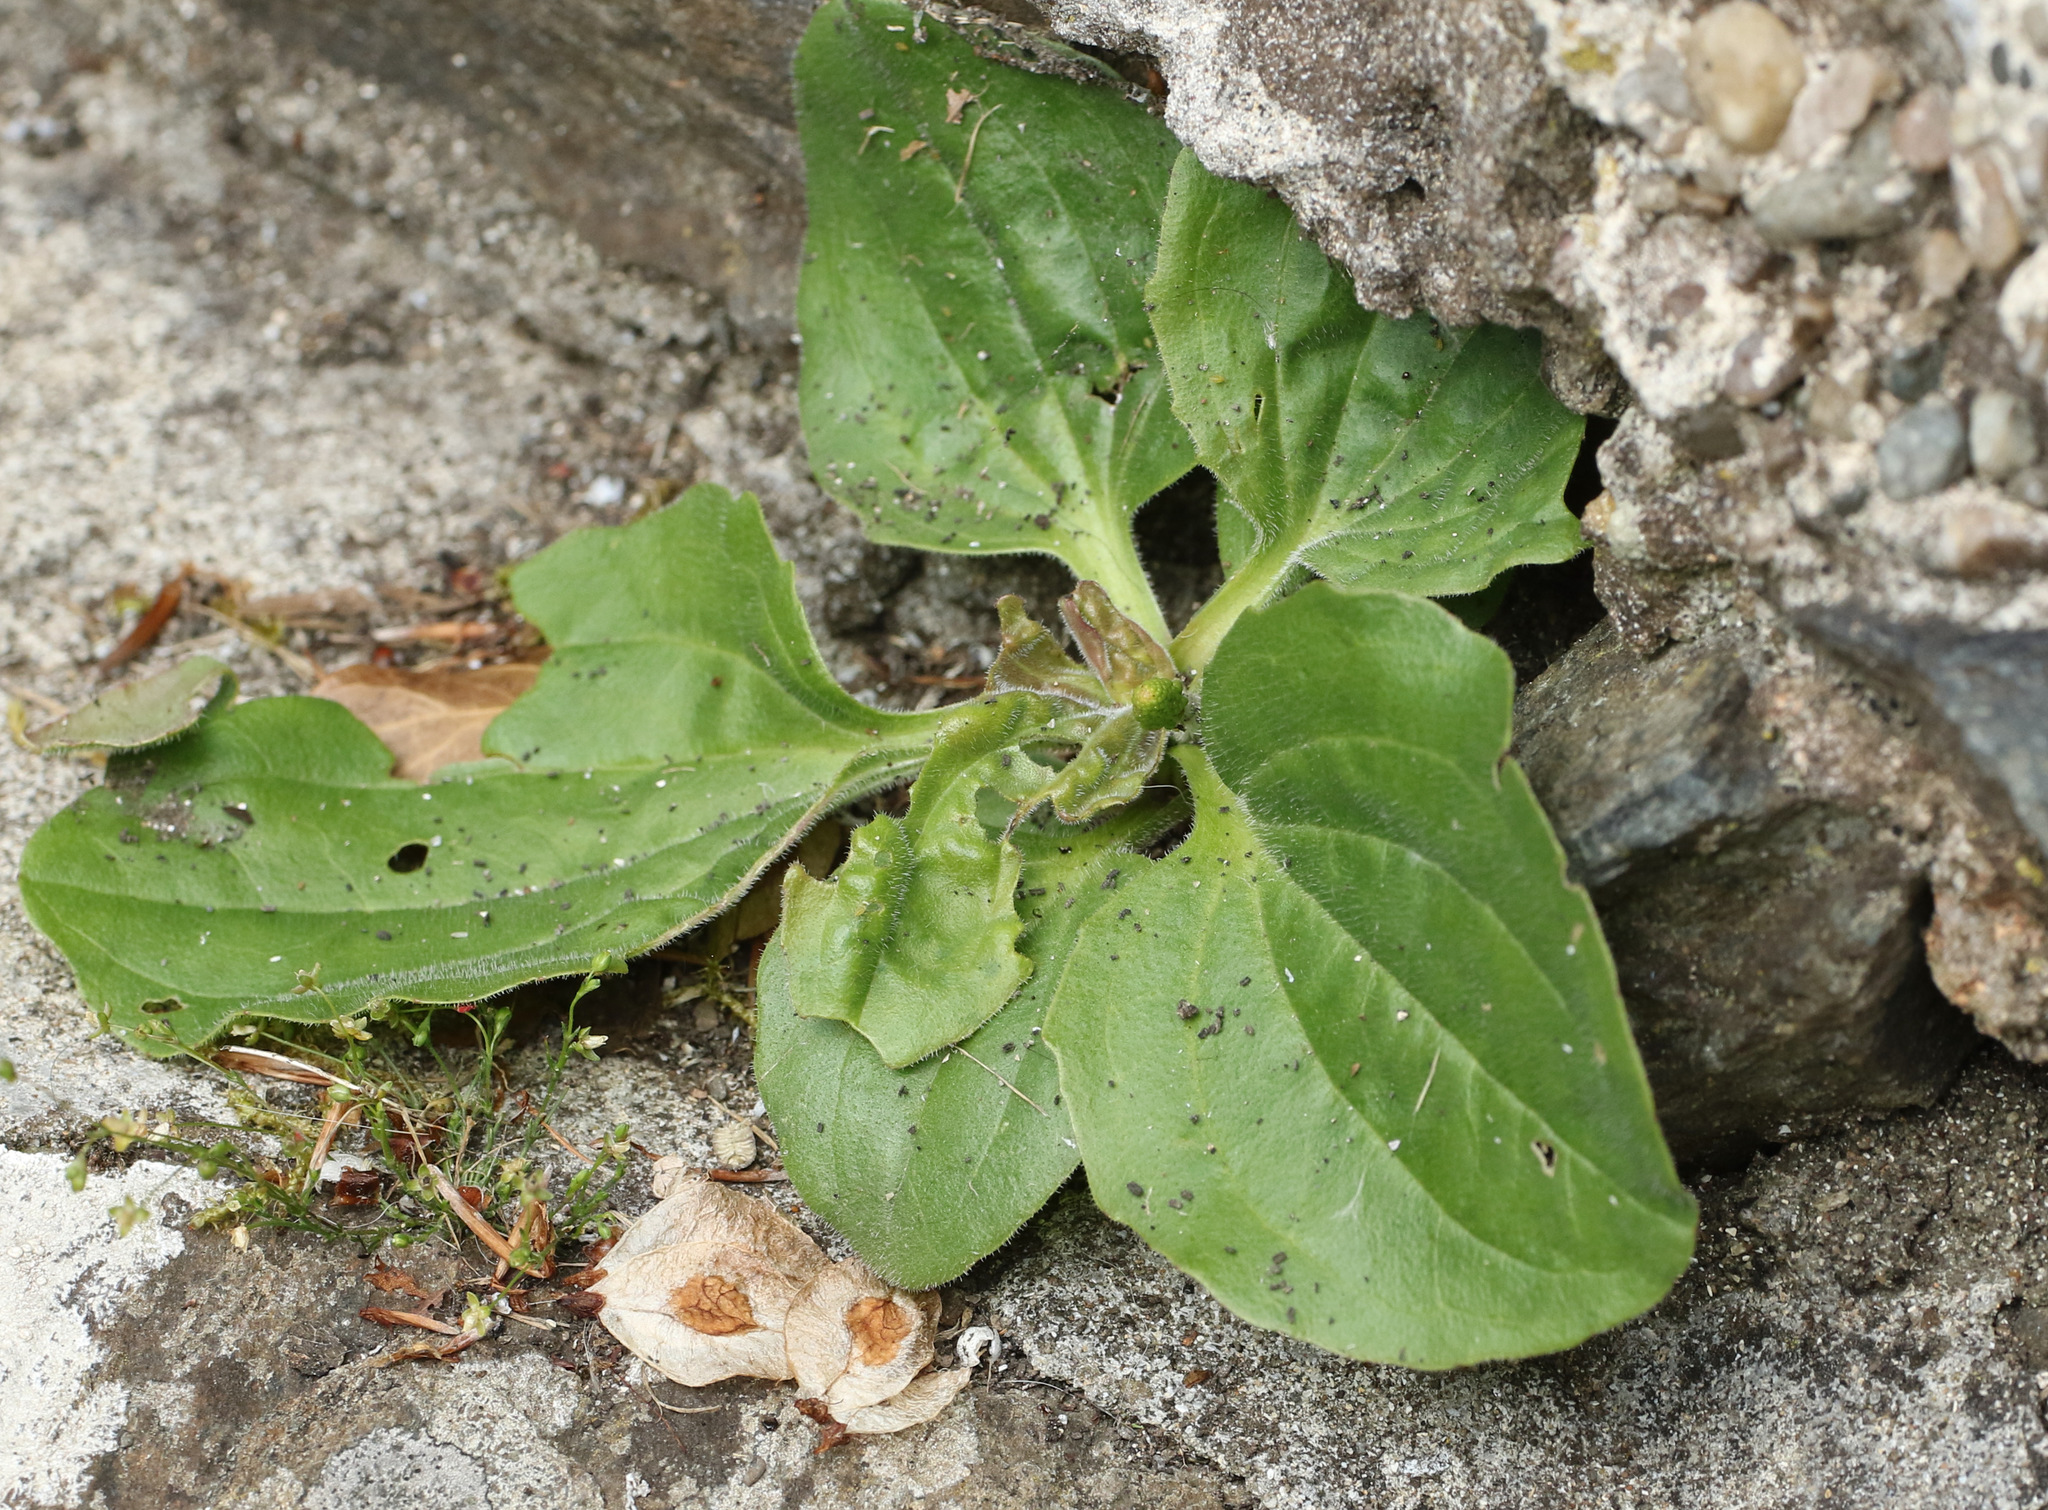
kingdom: Plantae
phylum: Tracheophyta
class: Magnoliopsida
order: Lamiales
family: Plantaginaceae
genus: Plantago
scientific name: Plantago major
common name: Common plantain
